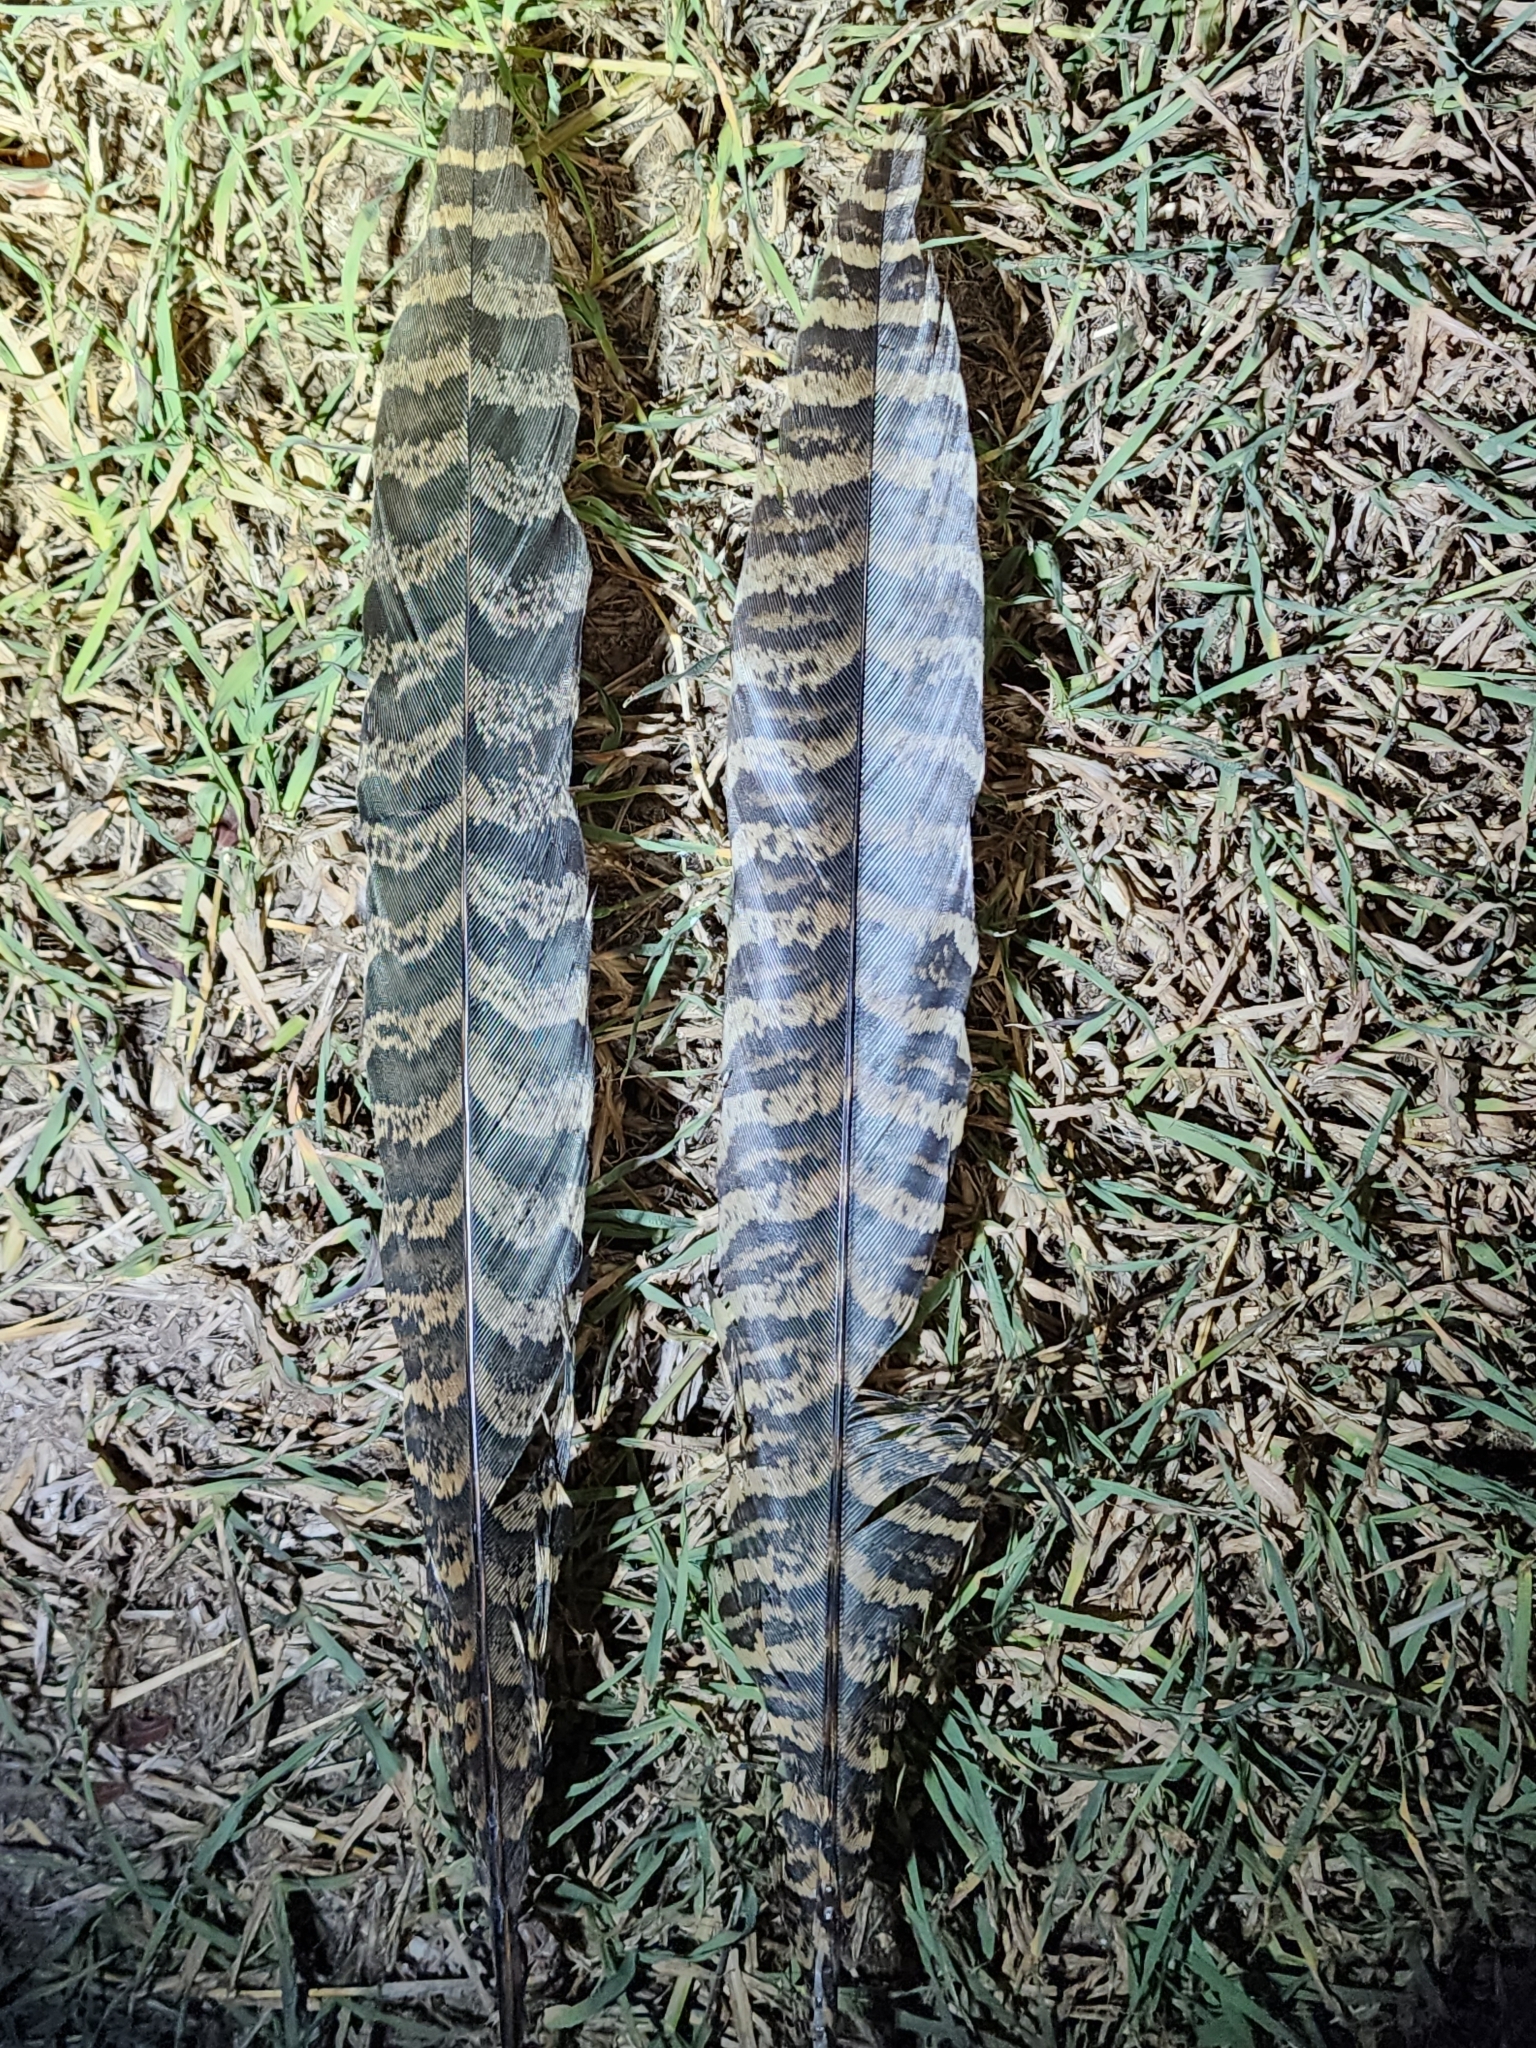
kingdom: Animalia
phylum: Chordata
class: Aves
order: Cuculiformes
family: Cuculidae
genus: Centropus
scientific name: Centropus phasianinus
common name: Pheasant coucal
